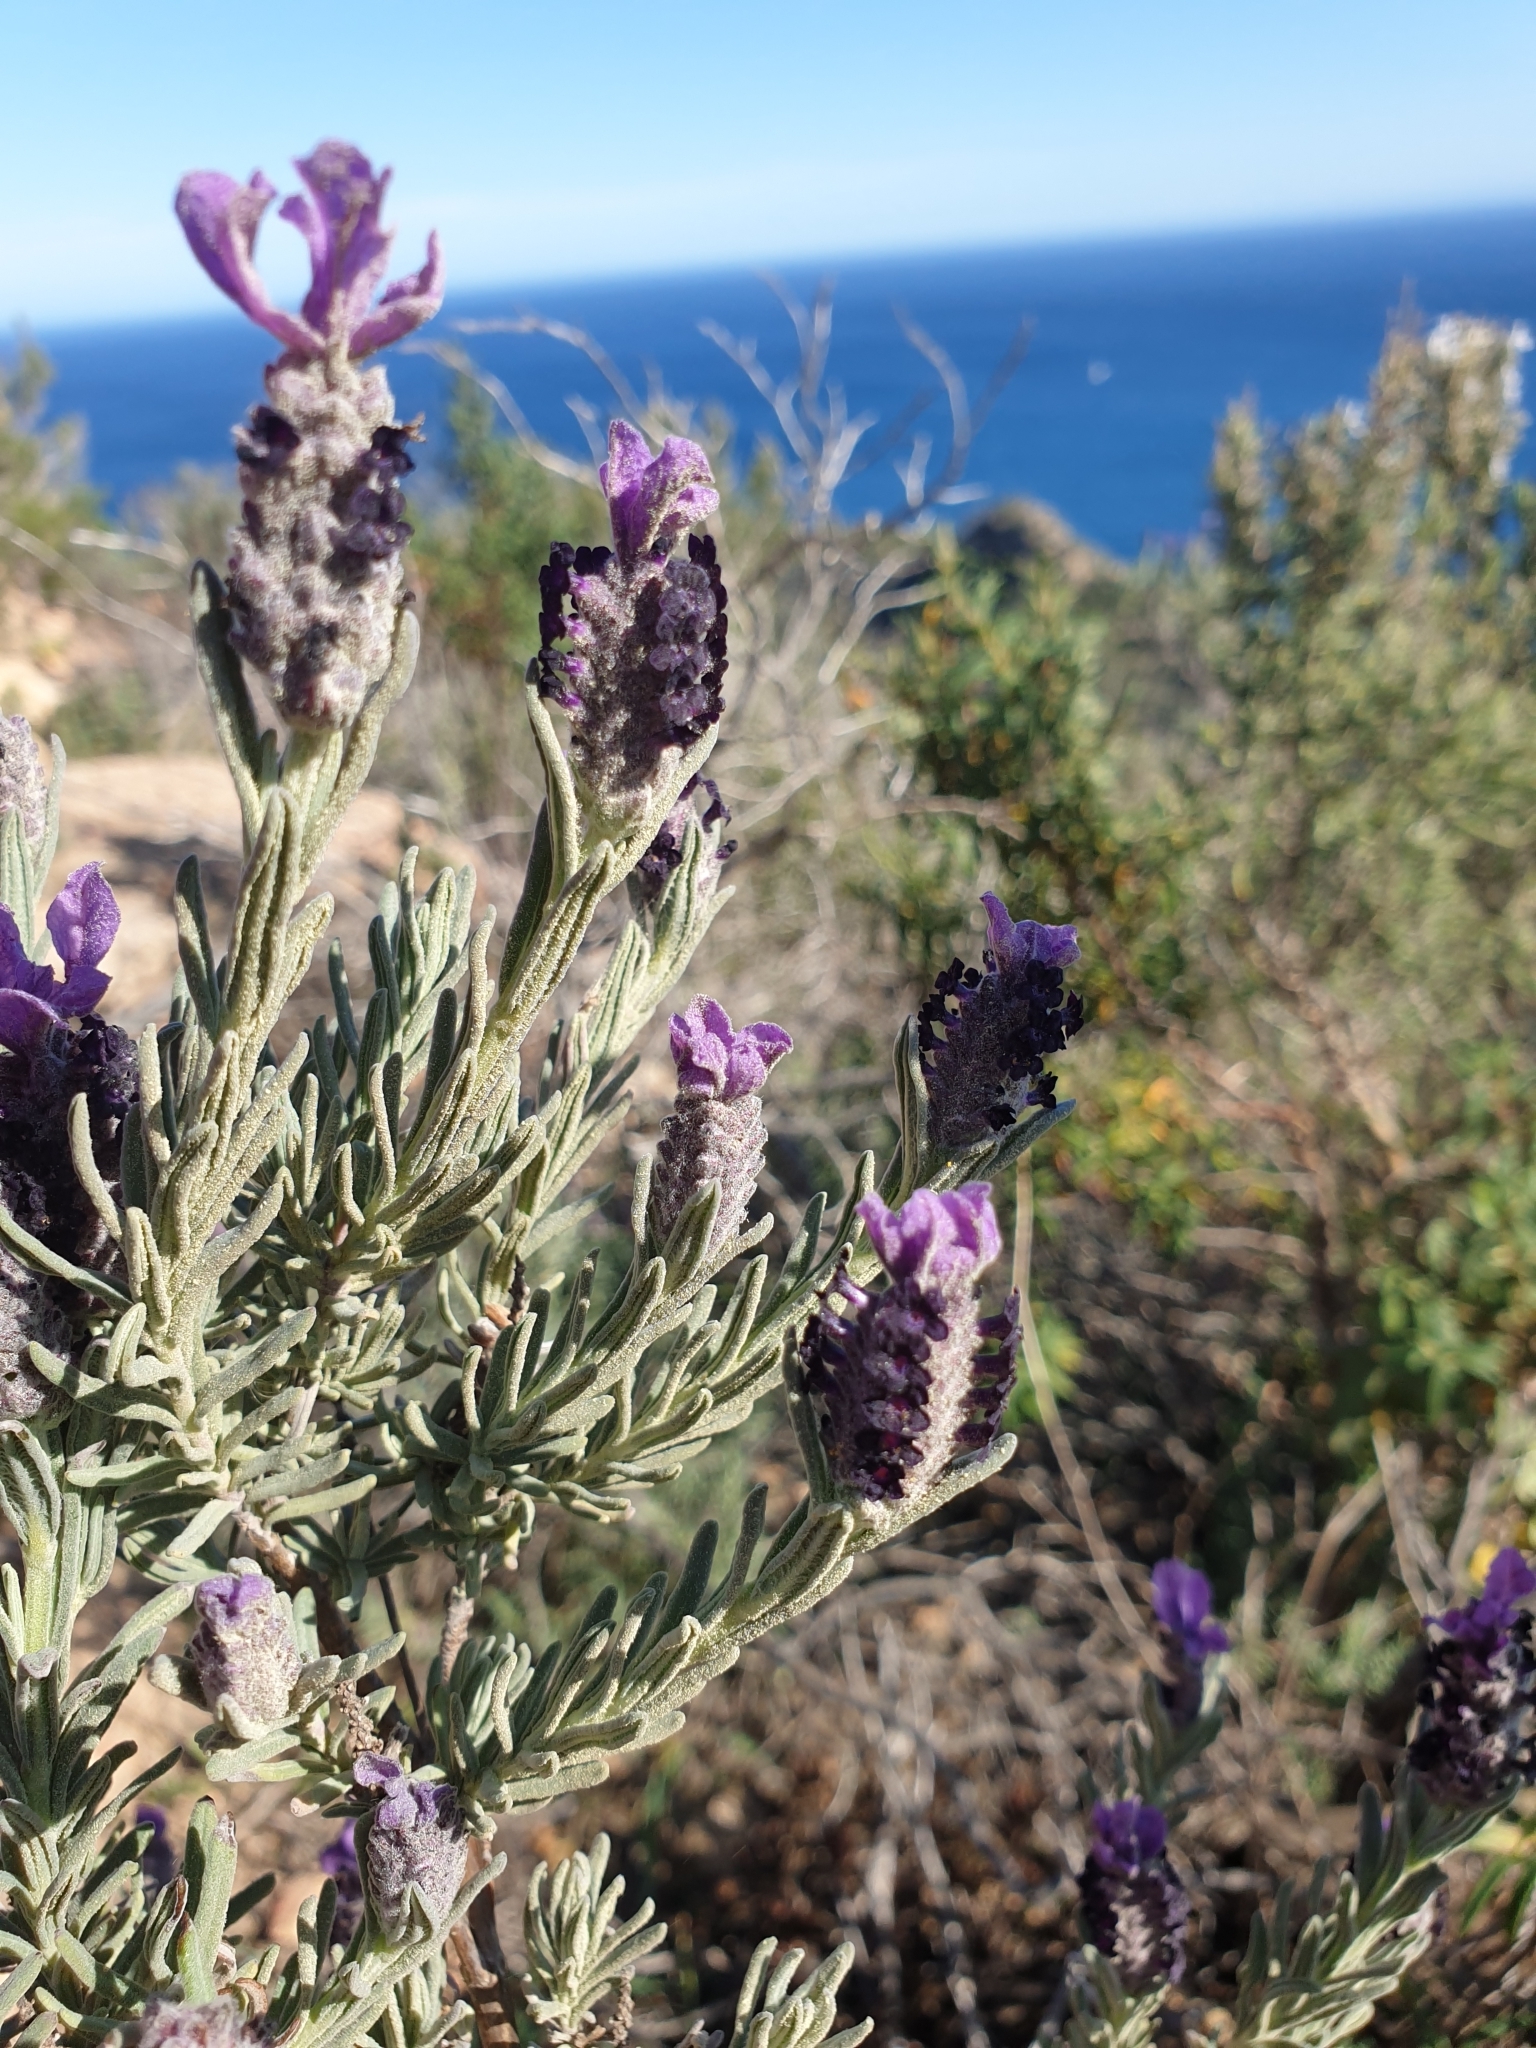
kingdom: Plantae
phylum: Tracheophyta
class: Magnoliopsida
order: Lamiales
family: Lamiaceae
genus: Lavandula
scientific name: Lavandula stoechas
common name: French lavender
